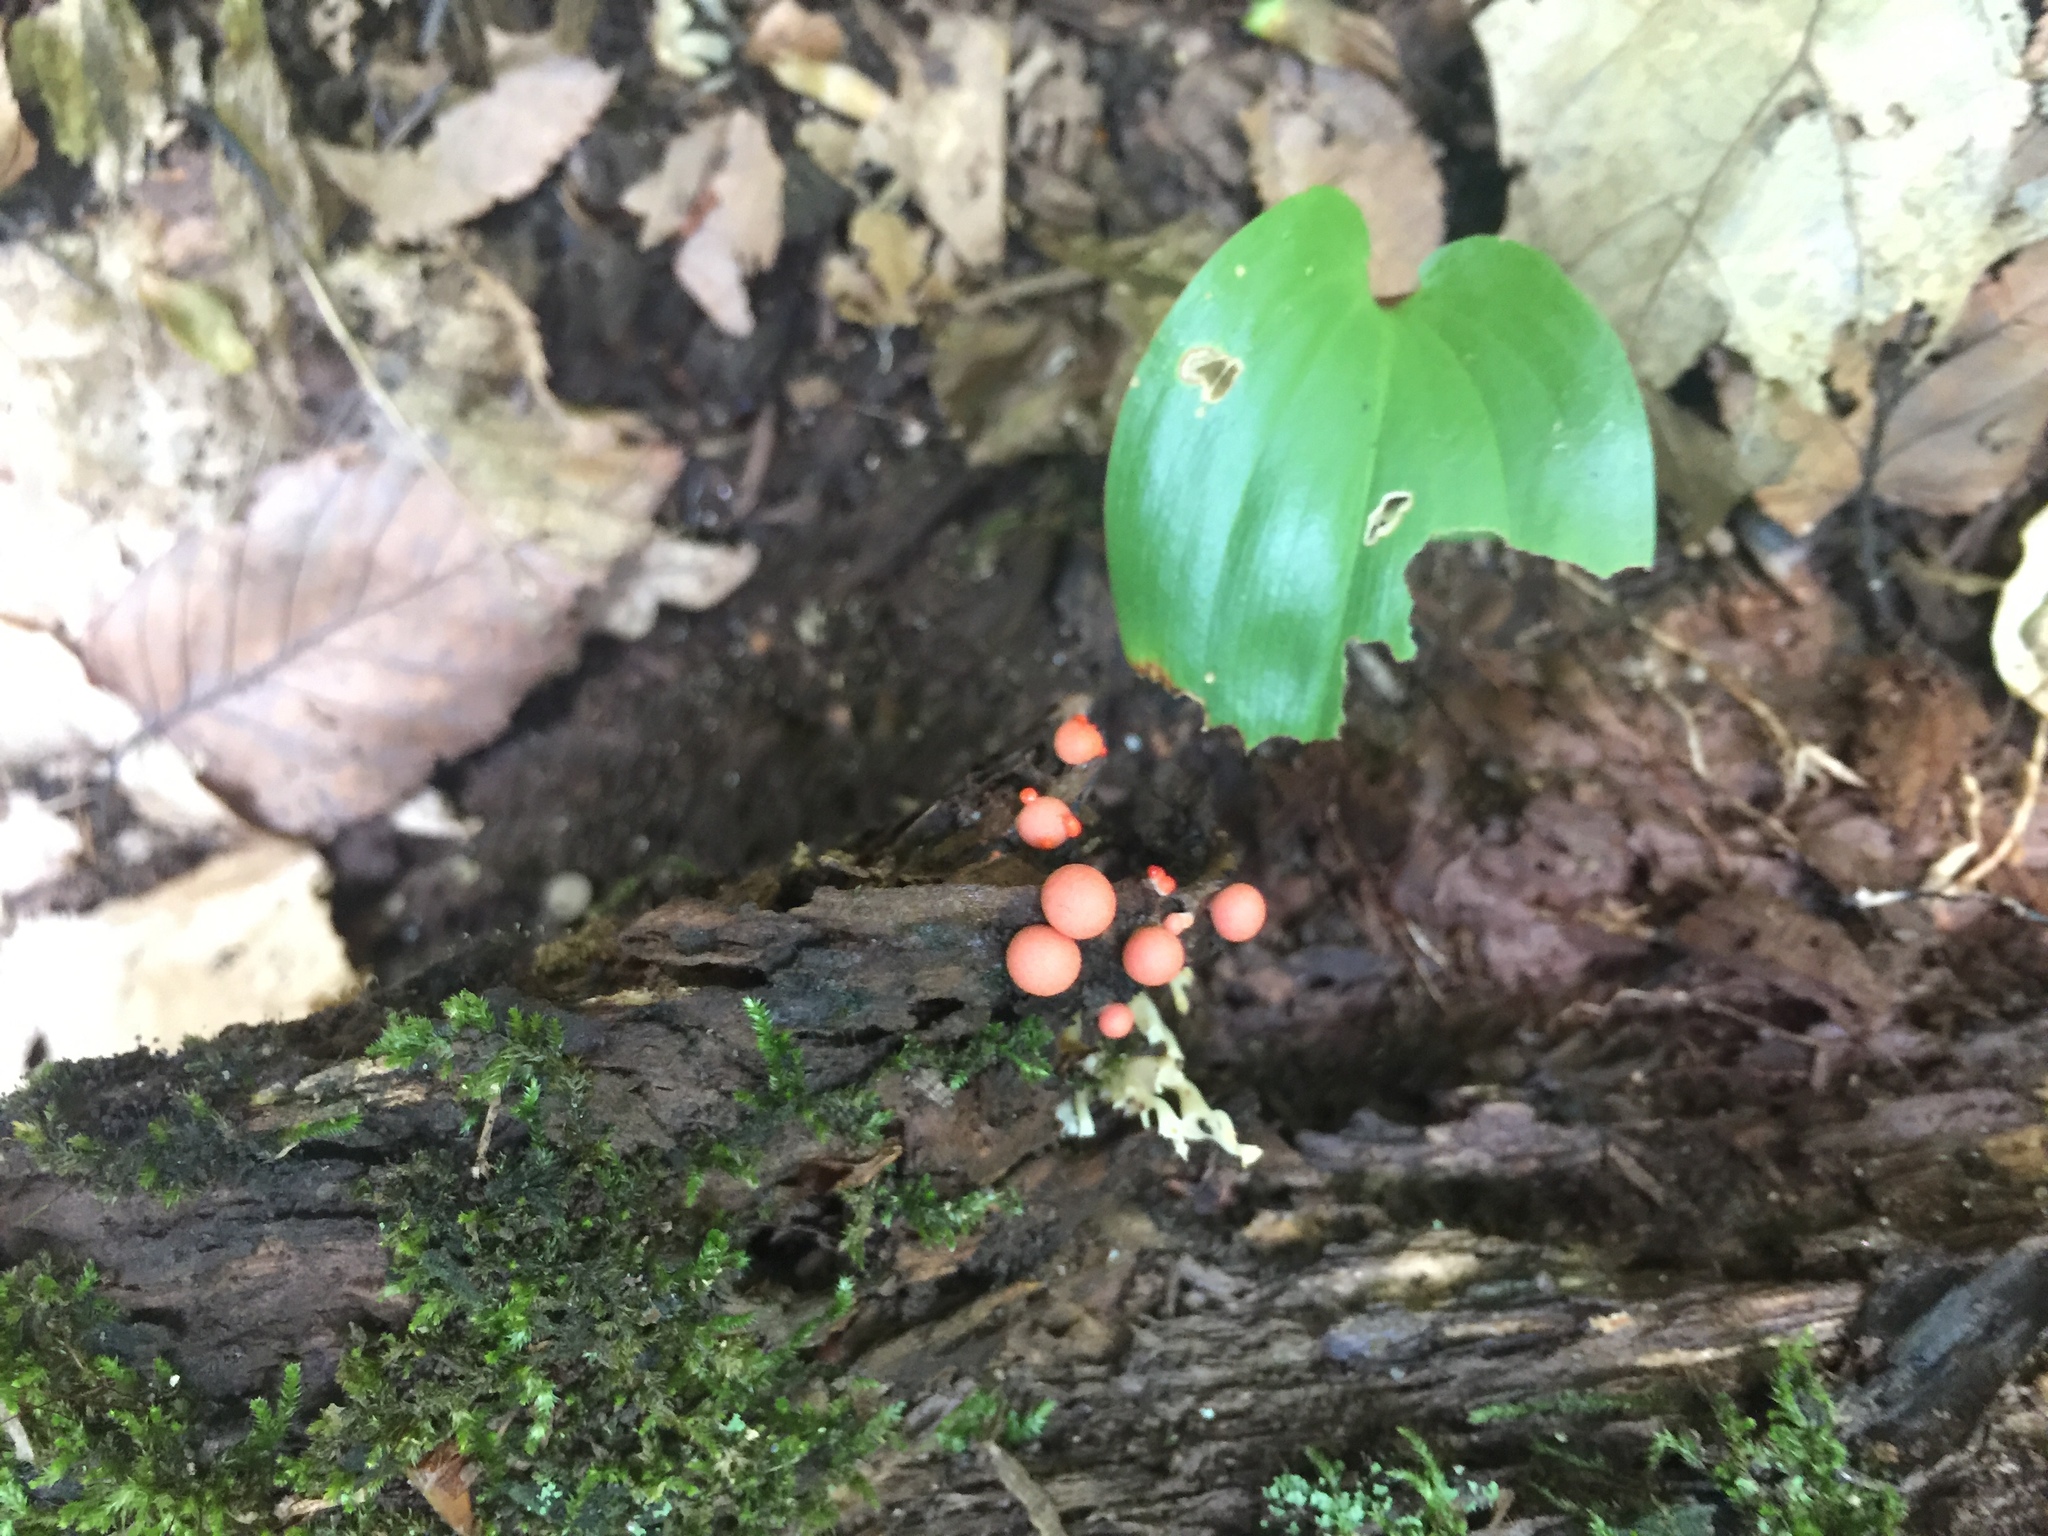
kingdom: Protozoa
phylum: Mycetozoa
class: Myxomycetes
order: Cribrariales
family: Tubiferaceae
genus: Lycogala
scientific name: Lycogala epidendrum
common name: Wolf's milk
